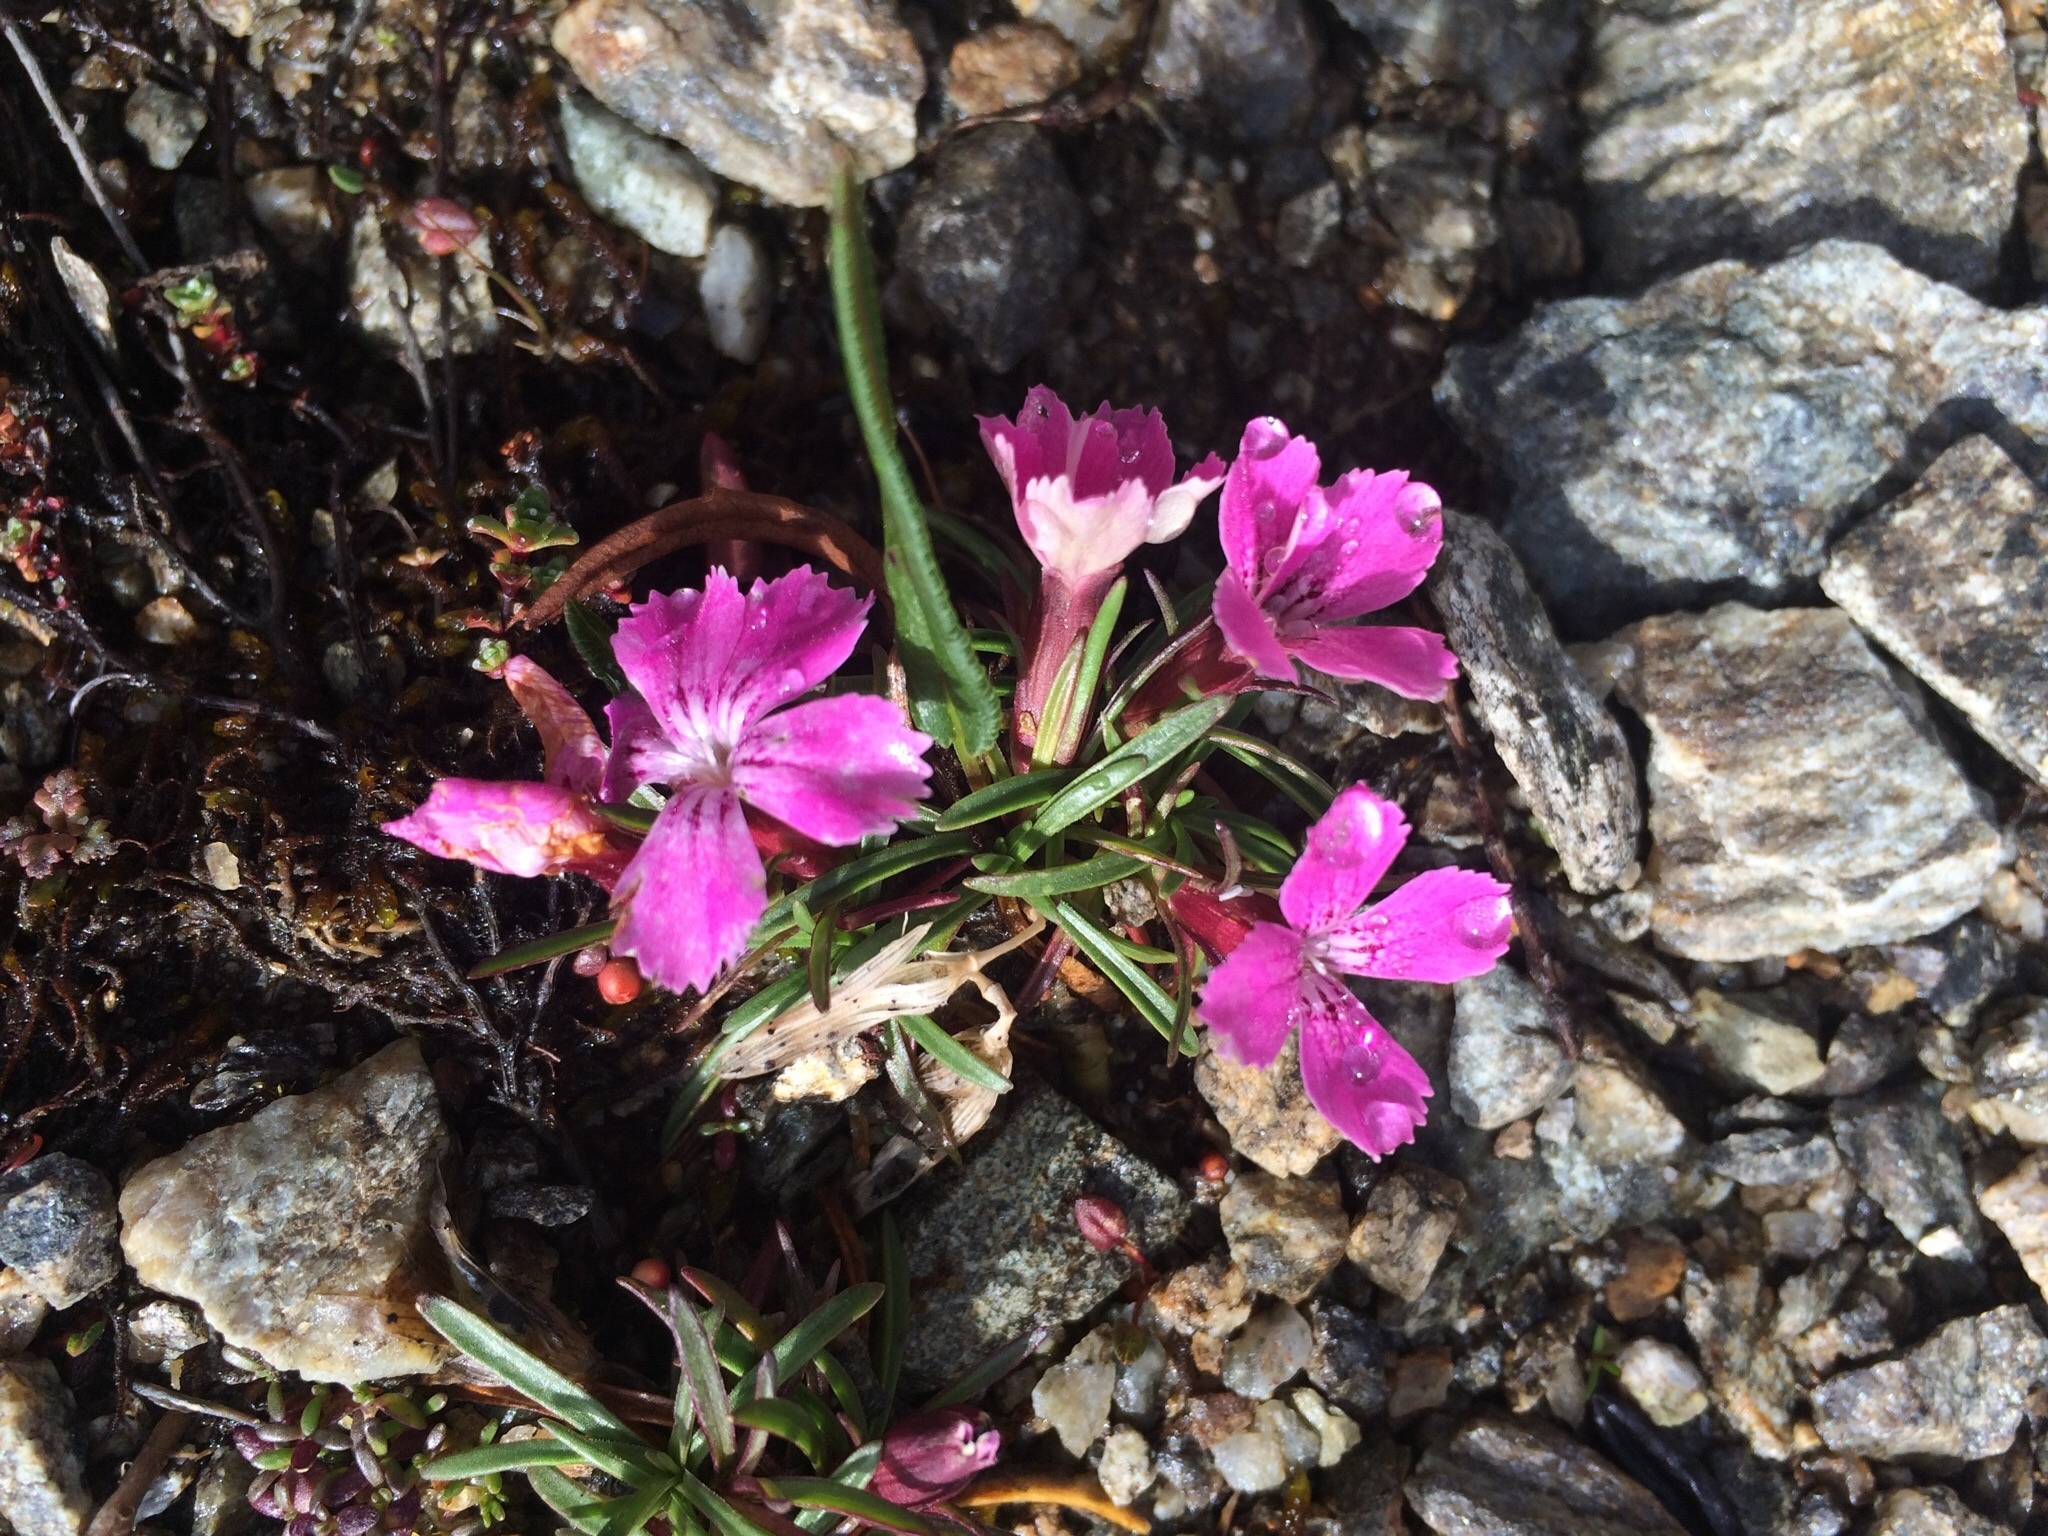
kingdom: Plantae
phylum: Tracheophyta
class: Magnoliopsida
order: Caryophyllales
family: Caryophyllaceae
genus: Dianthus
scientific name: Dianthus glacialis
